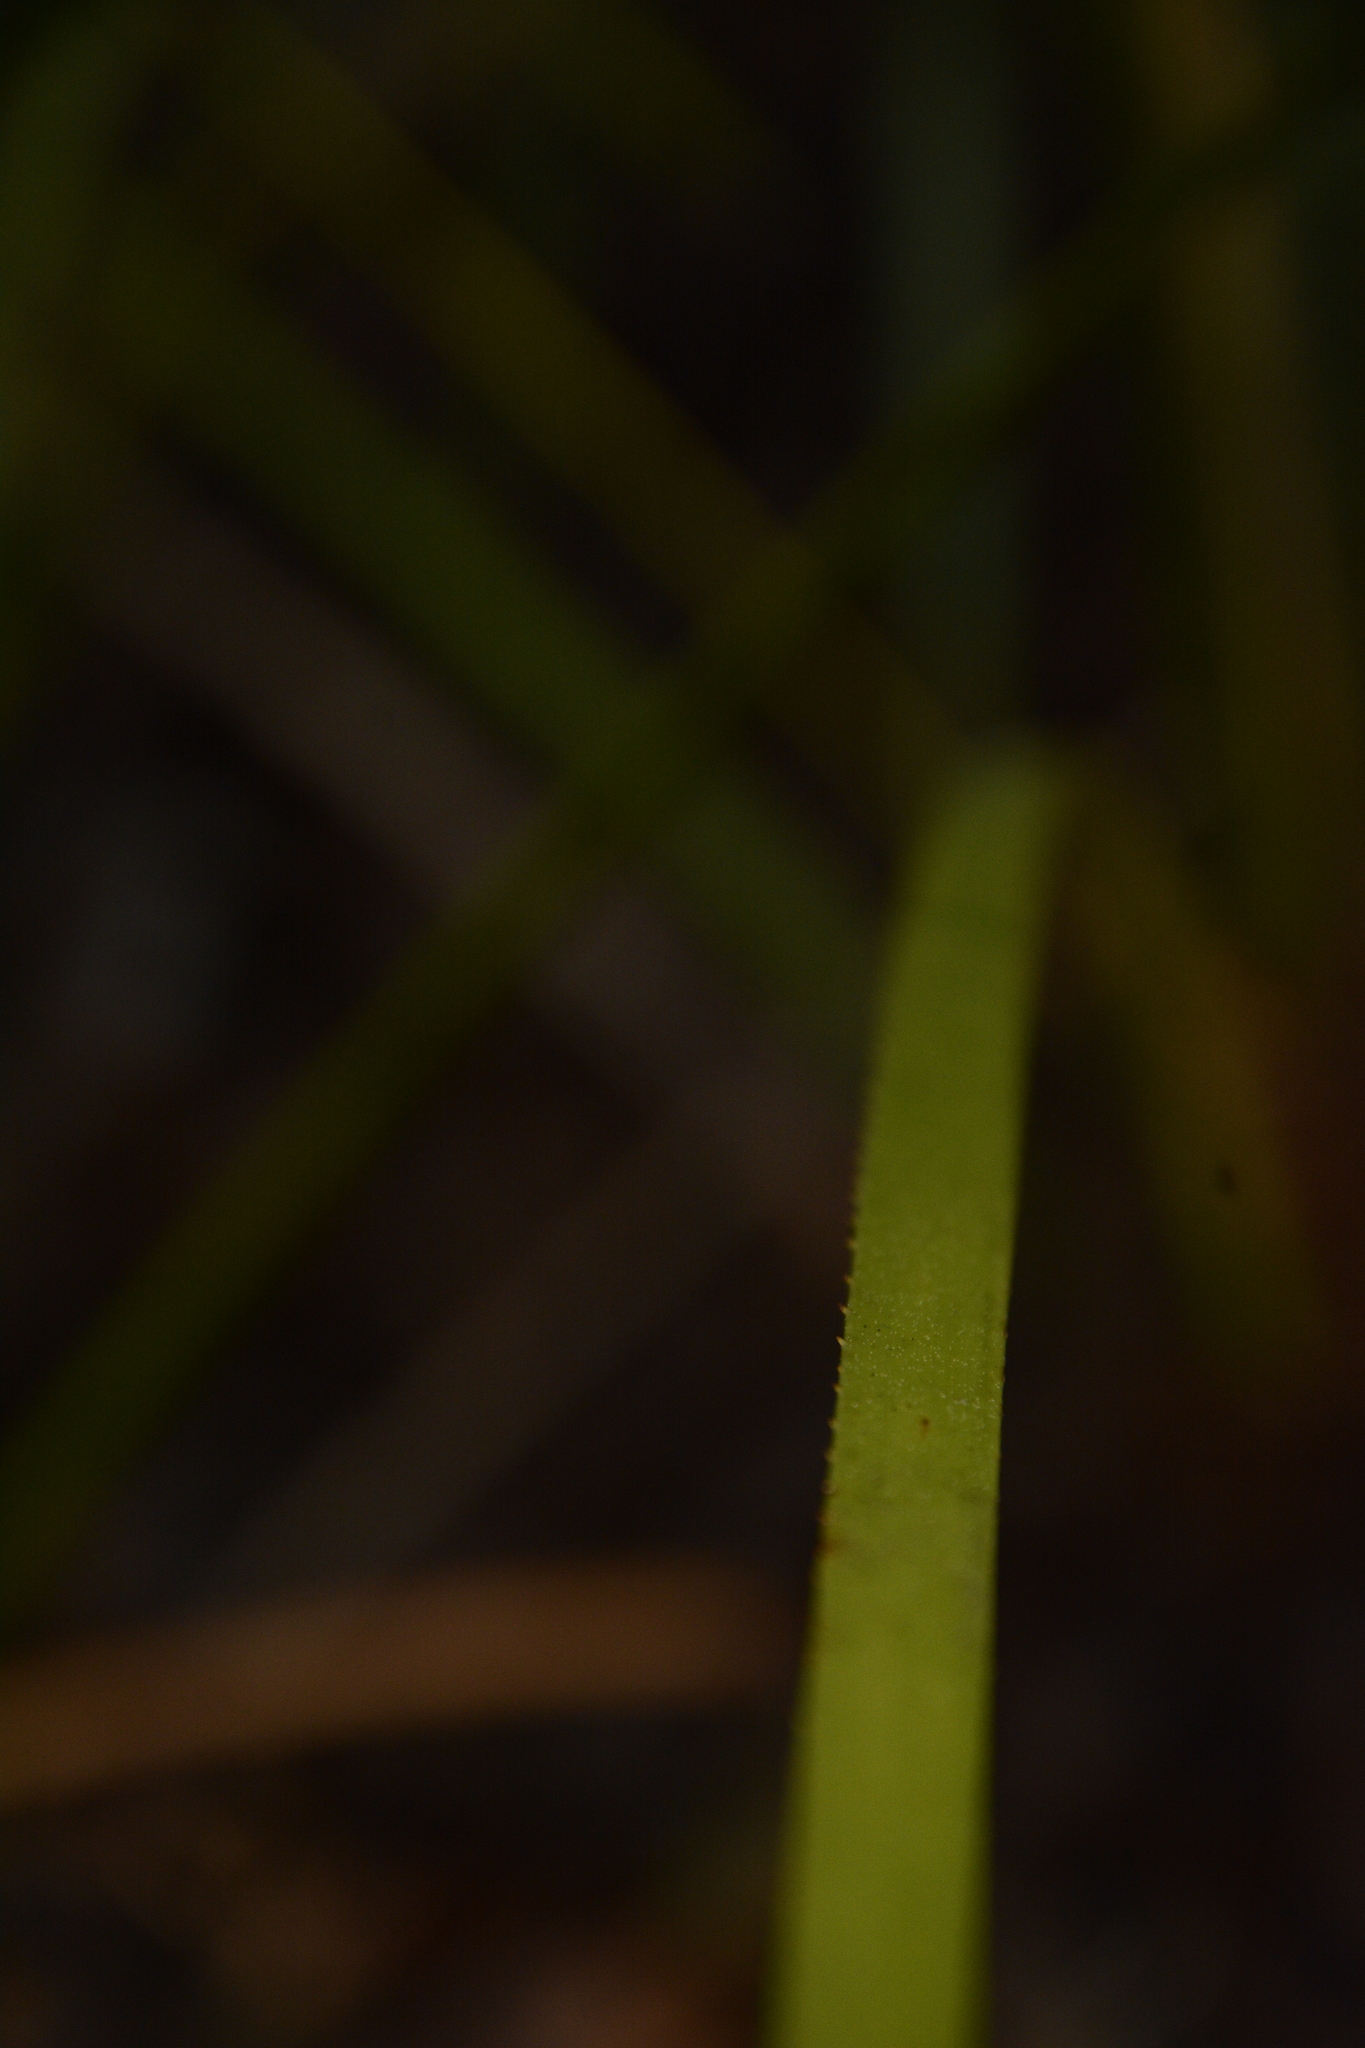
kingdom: Plantae
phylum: Tracheophyta
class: Liliopsida
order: Arecales
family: Arecaceae
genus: Serenoa
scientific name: Serenoa repens
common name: Saw-palmetto
